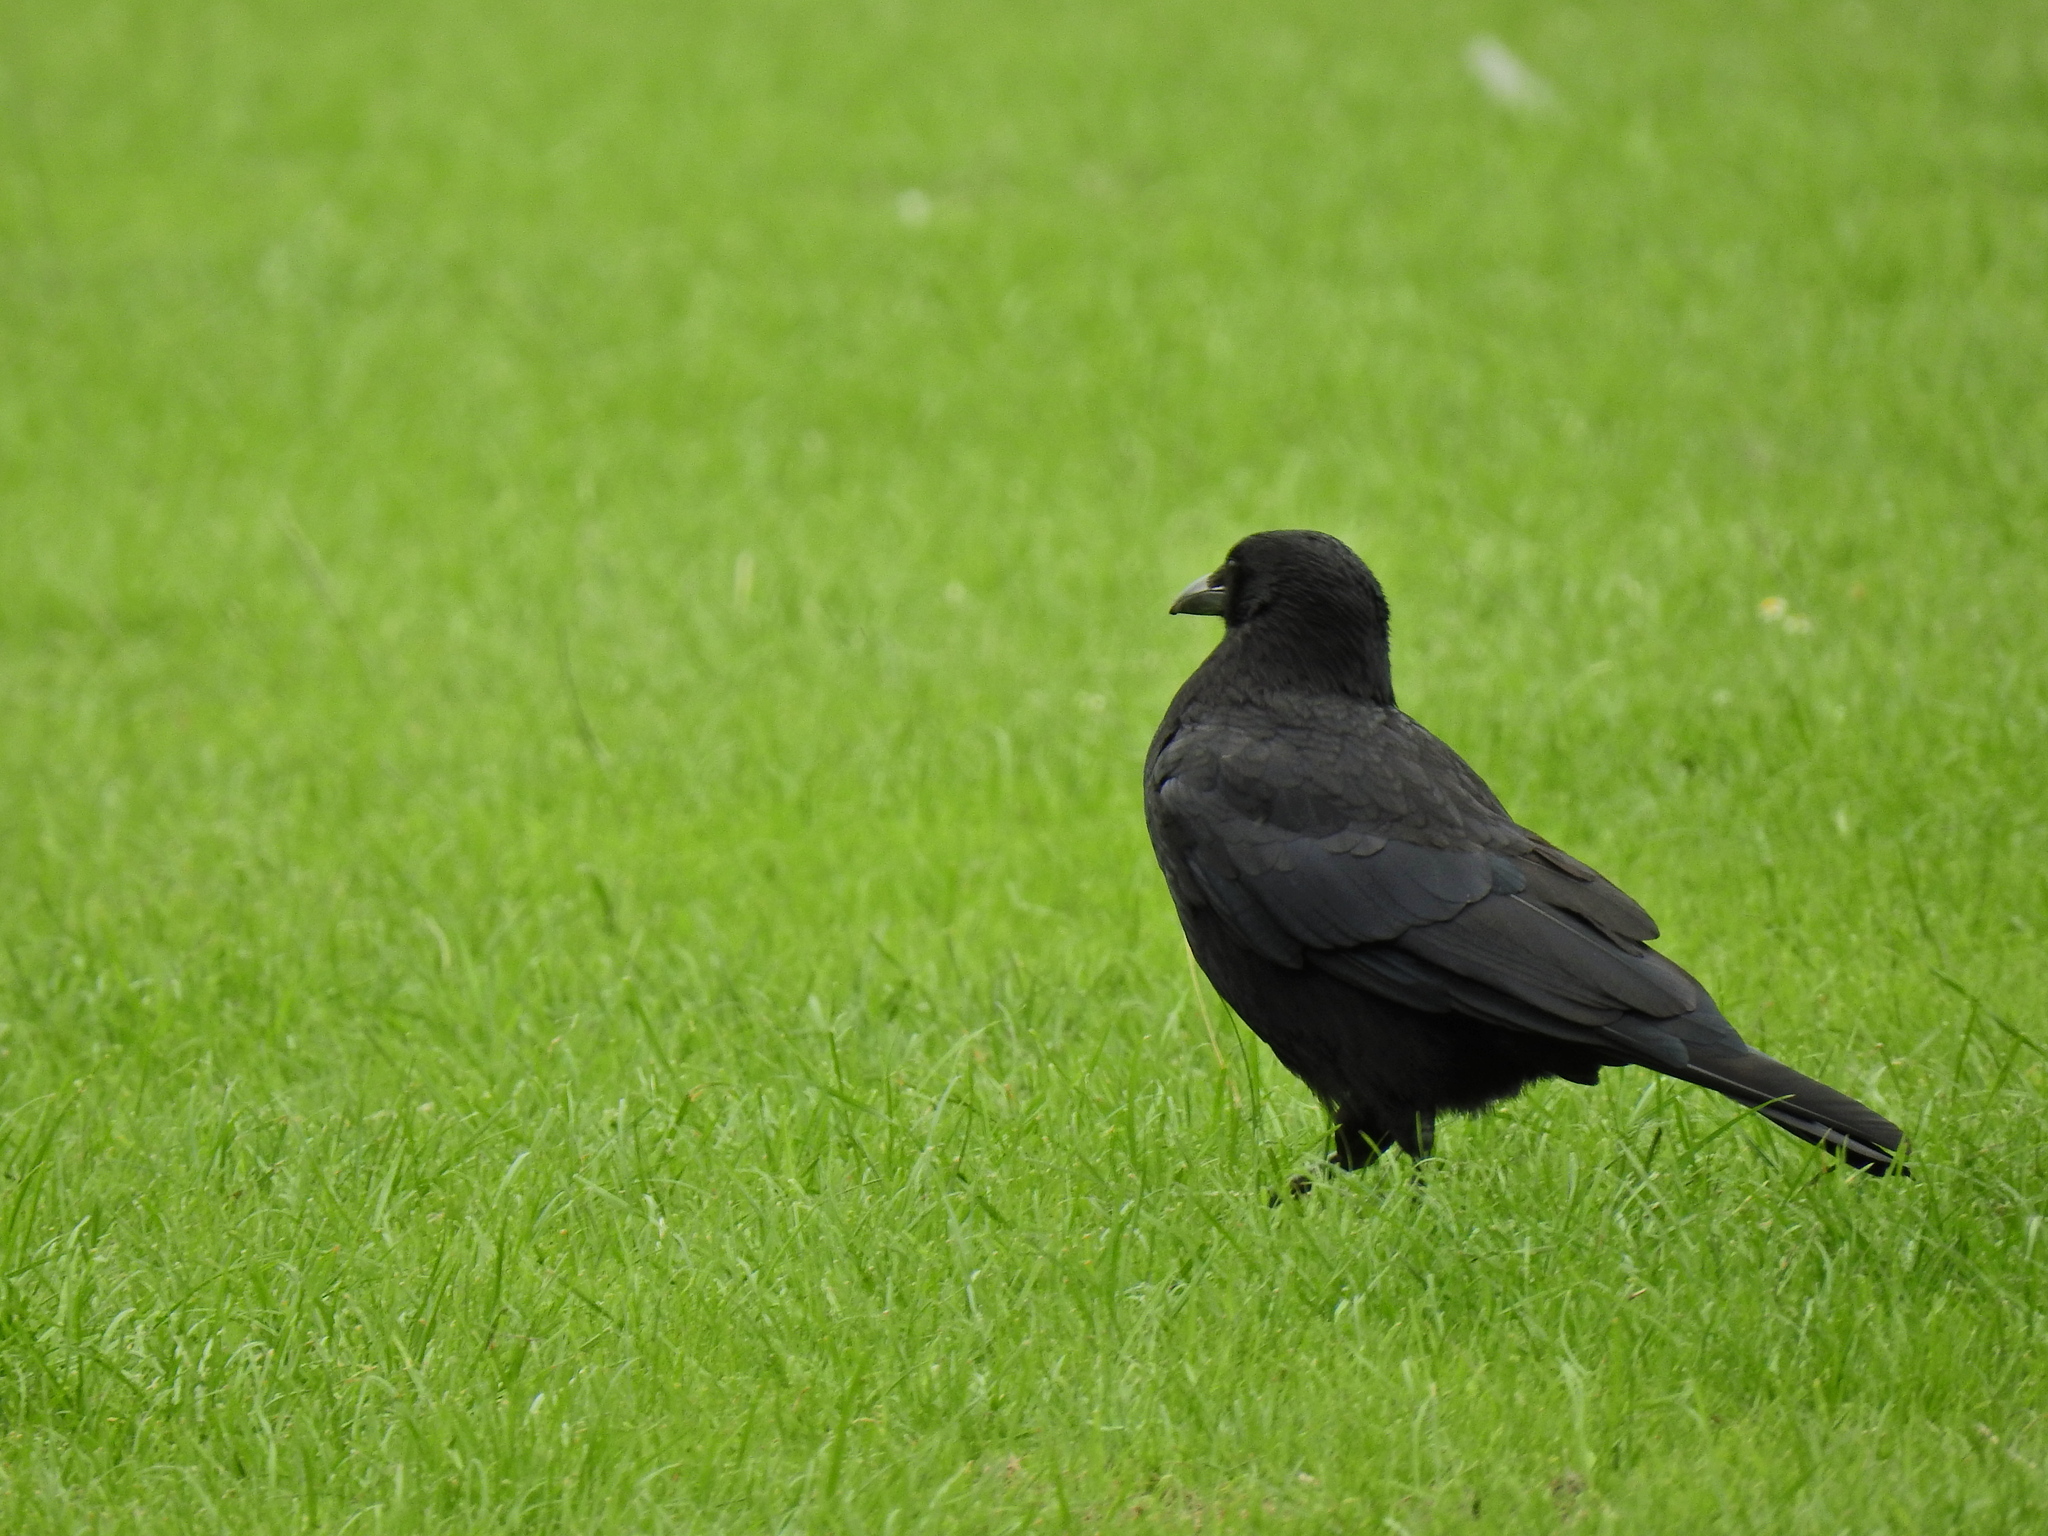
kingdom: Animalia
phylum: Chordata
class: Aves
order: Passeriformes
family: Corvidae
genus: Corvus
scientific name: Corvus corone
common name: Carrion crow
